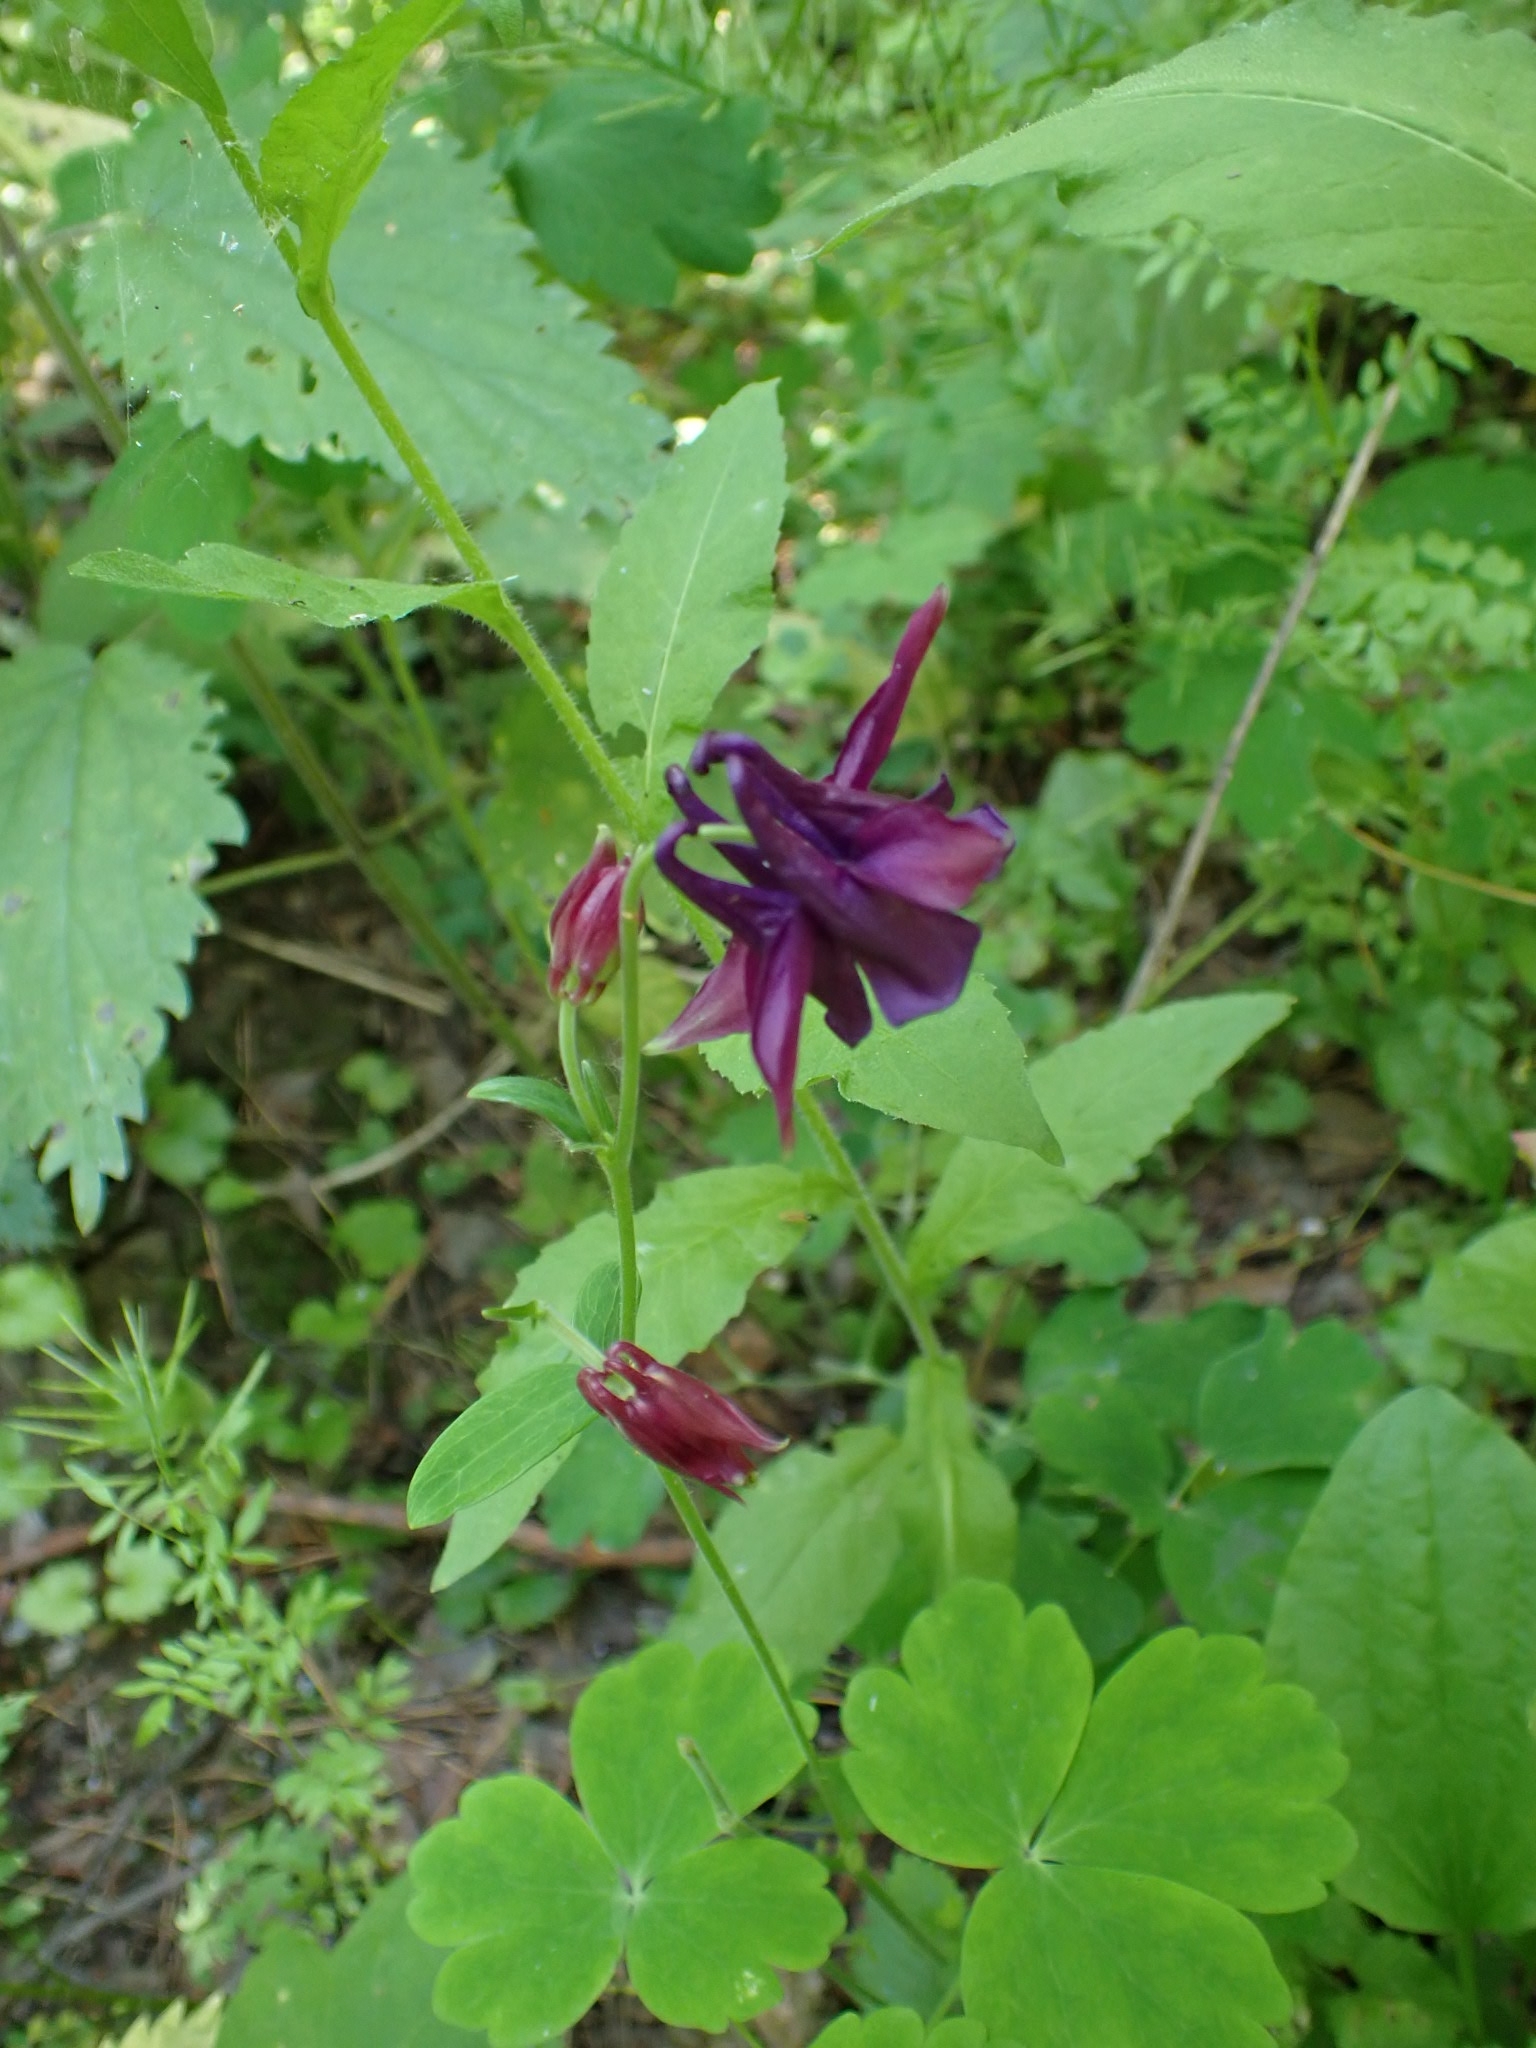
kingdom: Plantae
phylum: Tracheophyta
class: Magnoliopsida
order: Ranunculales
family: Ranunculaceae
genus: Aquilegia
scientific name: Aquilegia vulgaris
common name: Columbine
